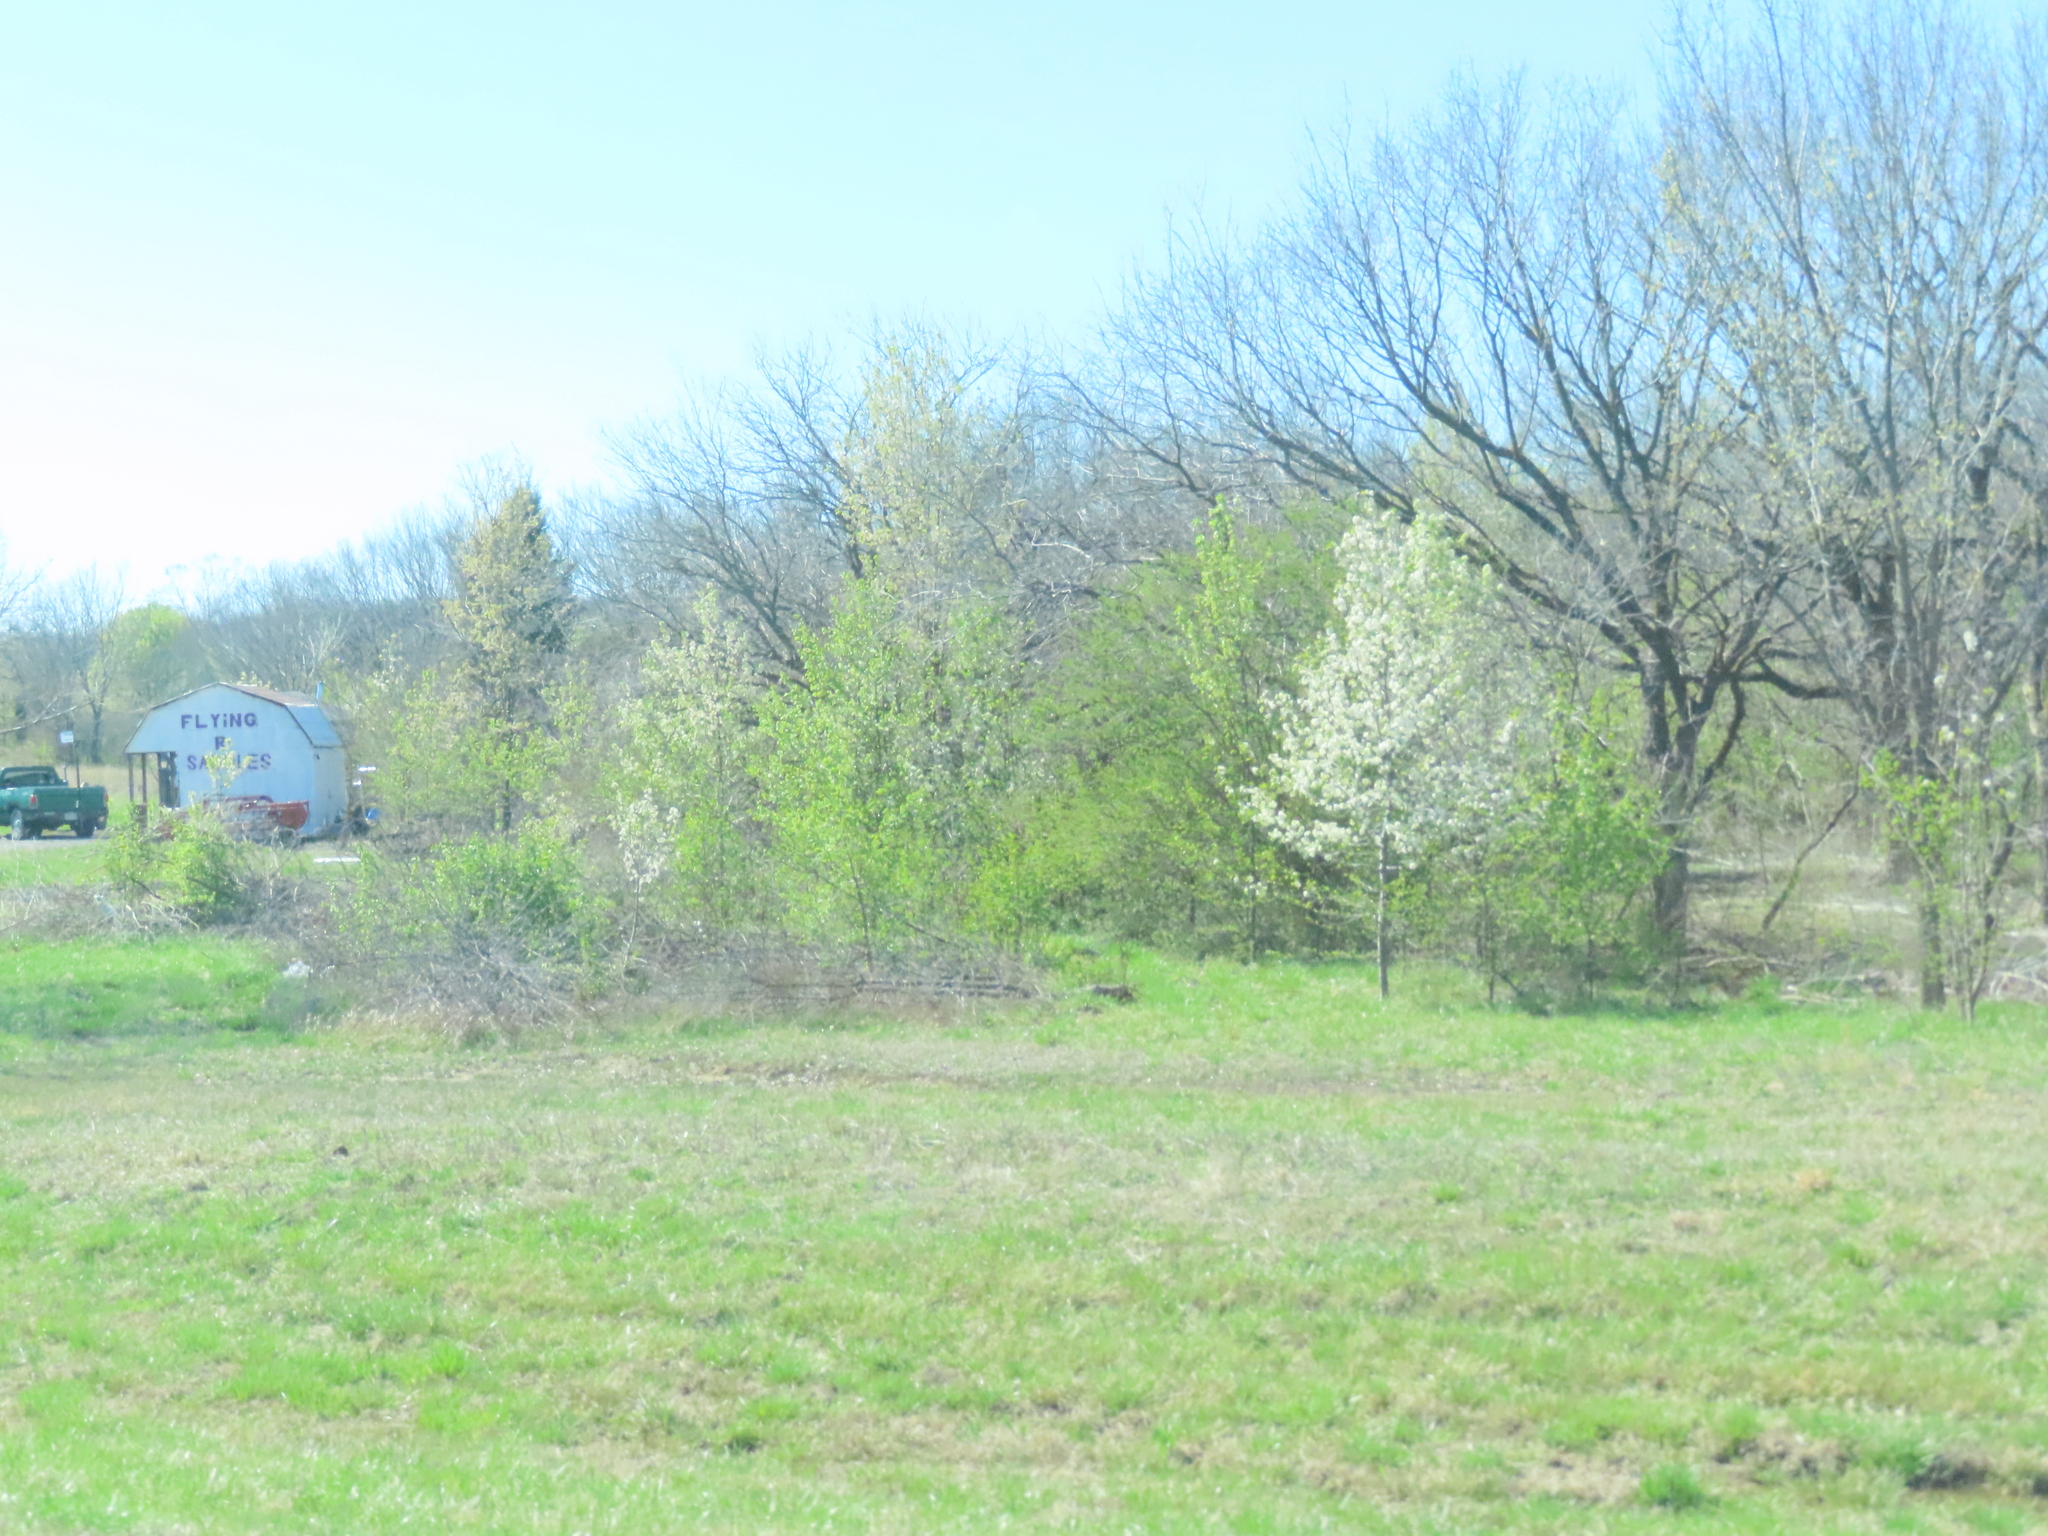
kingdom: Plantae
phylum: Tracheophyta
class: Magnoliopsida
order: Rosales
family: Rosaceae
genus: Pyrus
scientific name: Pyrus calleryana
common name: Callery pear
